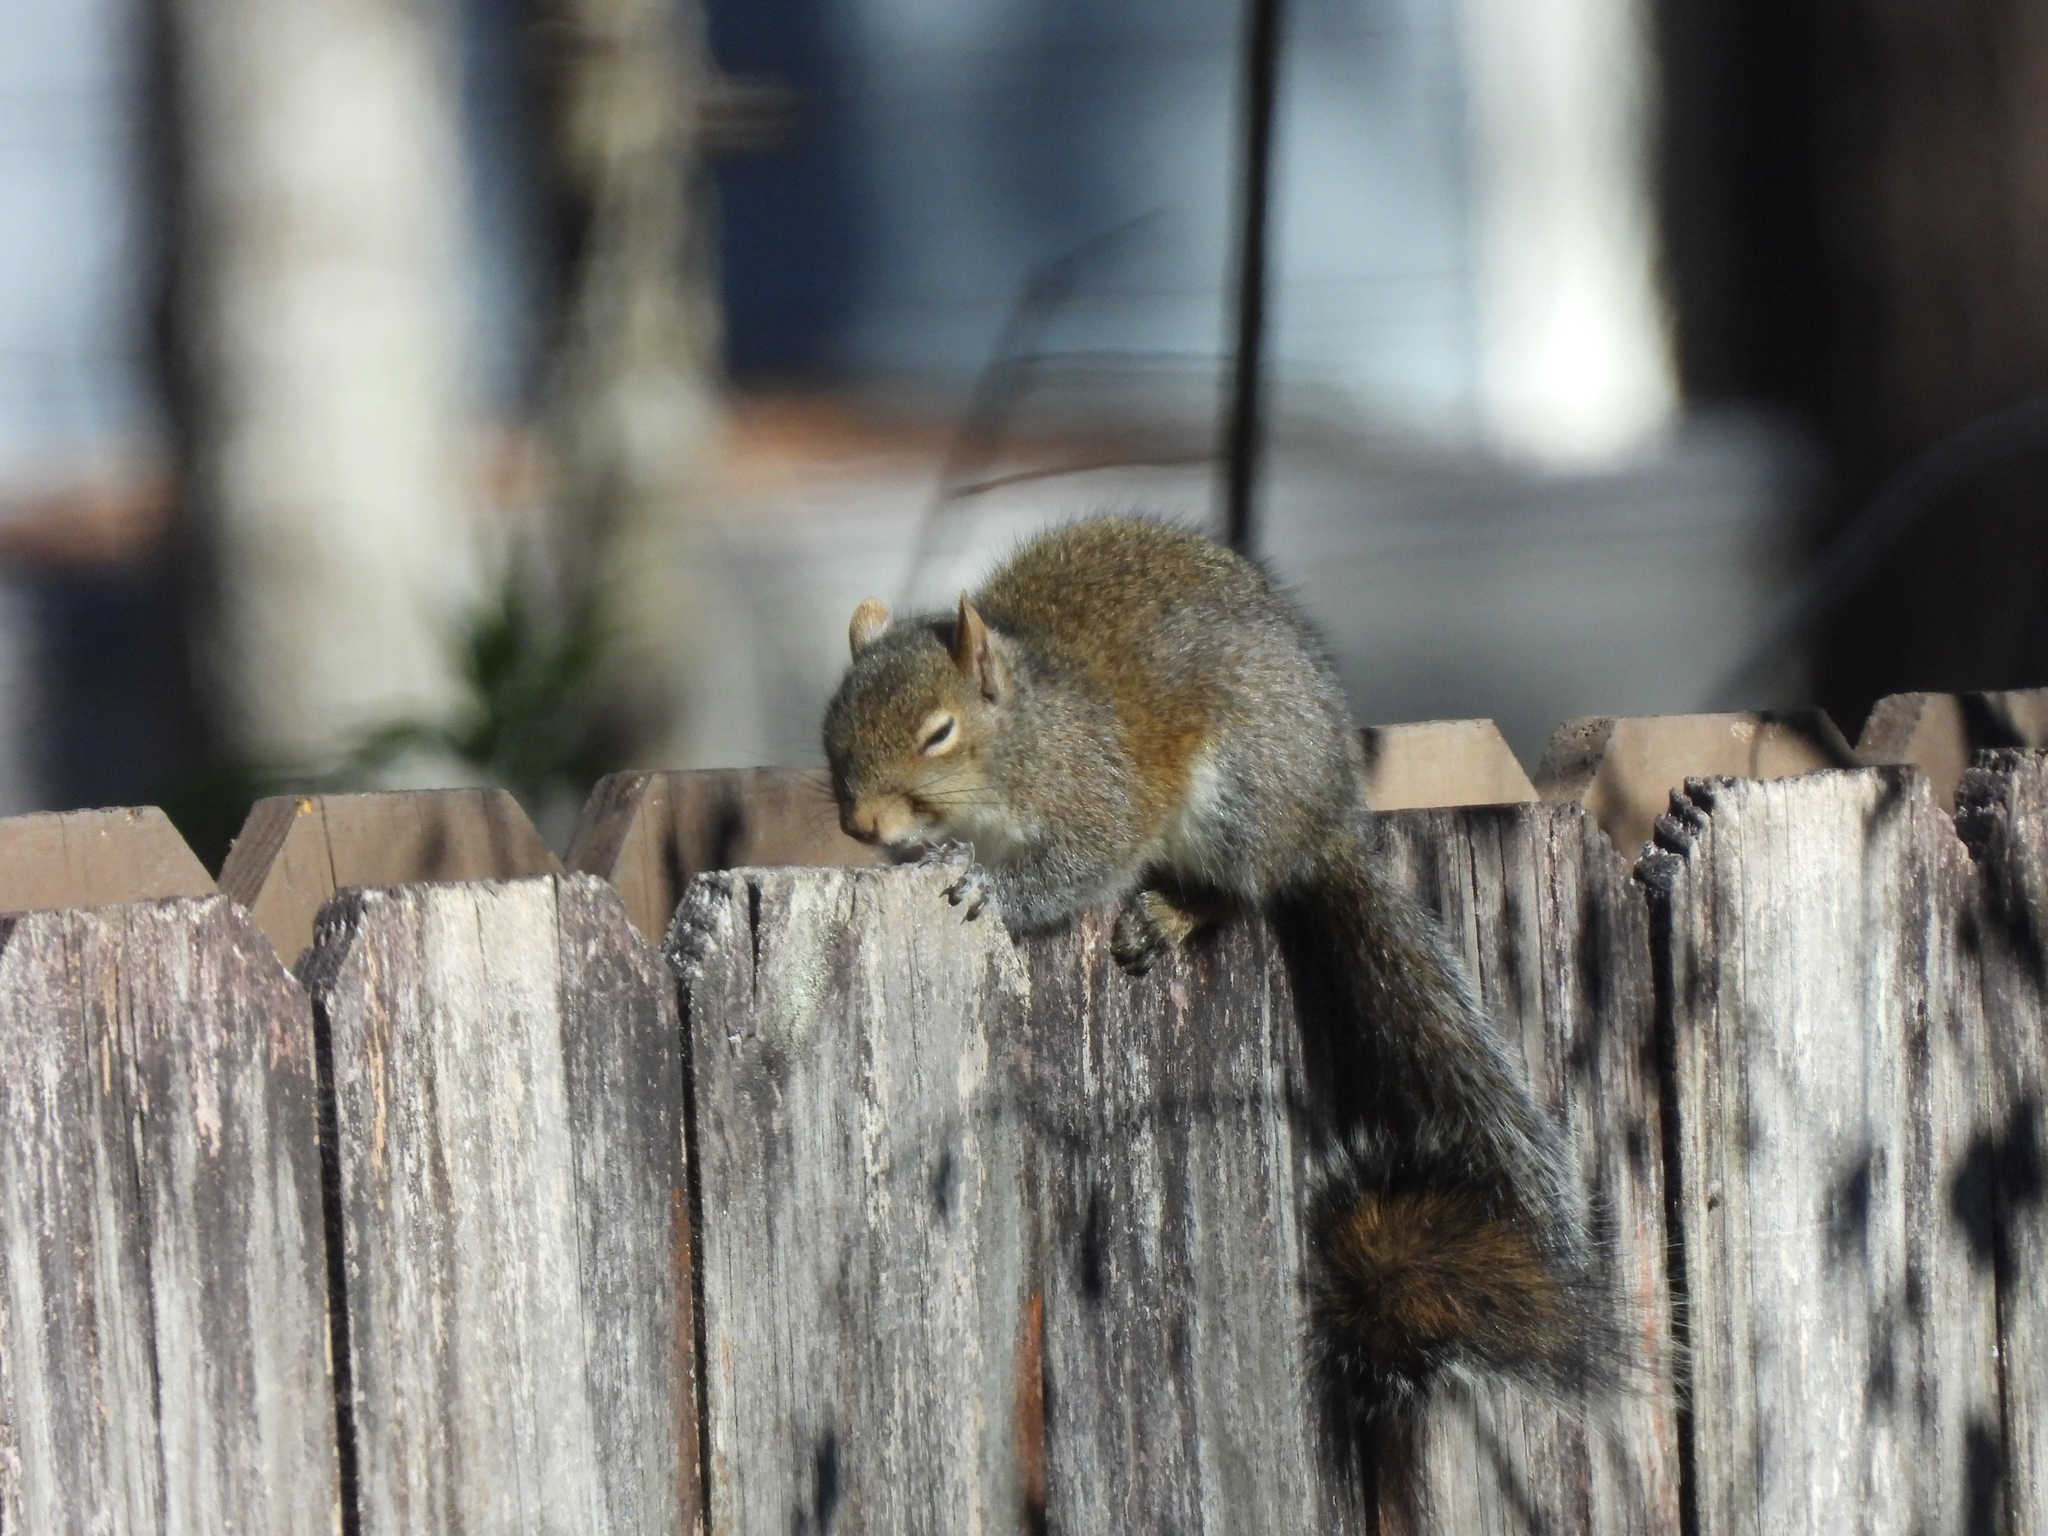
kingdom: Animalia
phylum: Chordata
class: Mammalia
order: Rodentia
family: Sciuridae
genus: Sciurus
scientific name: Sciurus carolinensis
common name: Eastern gray squirrel
